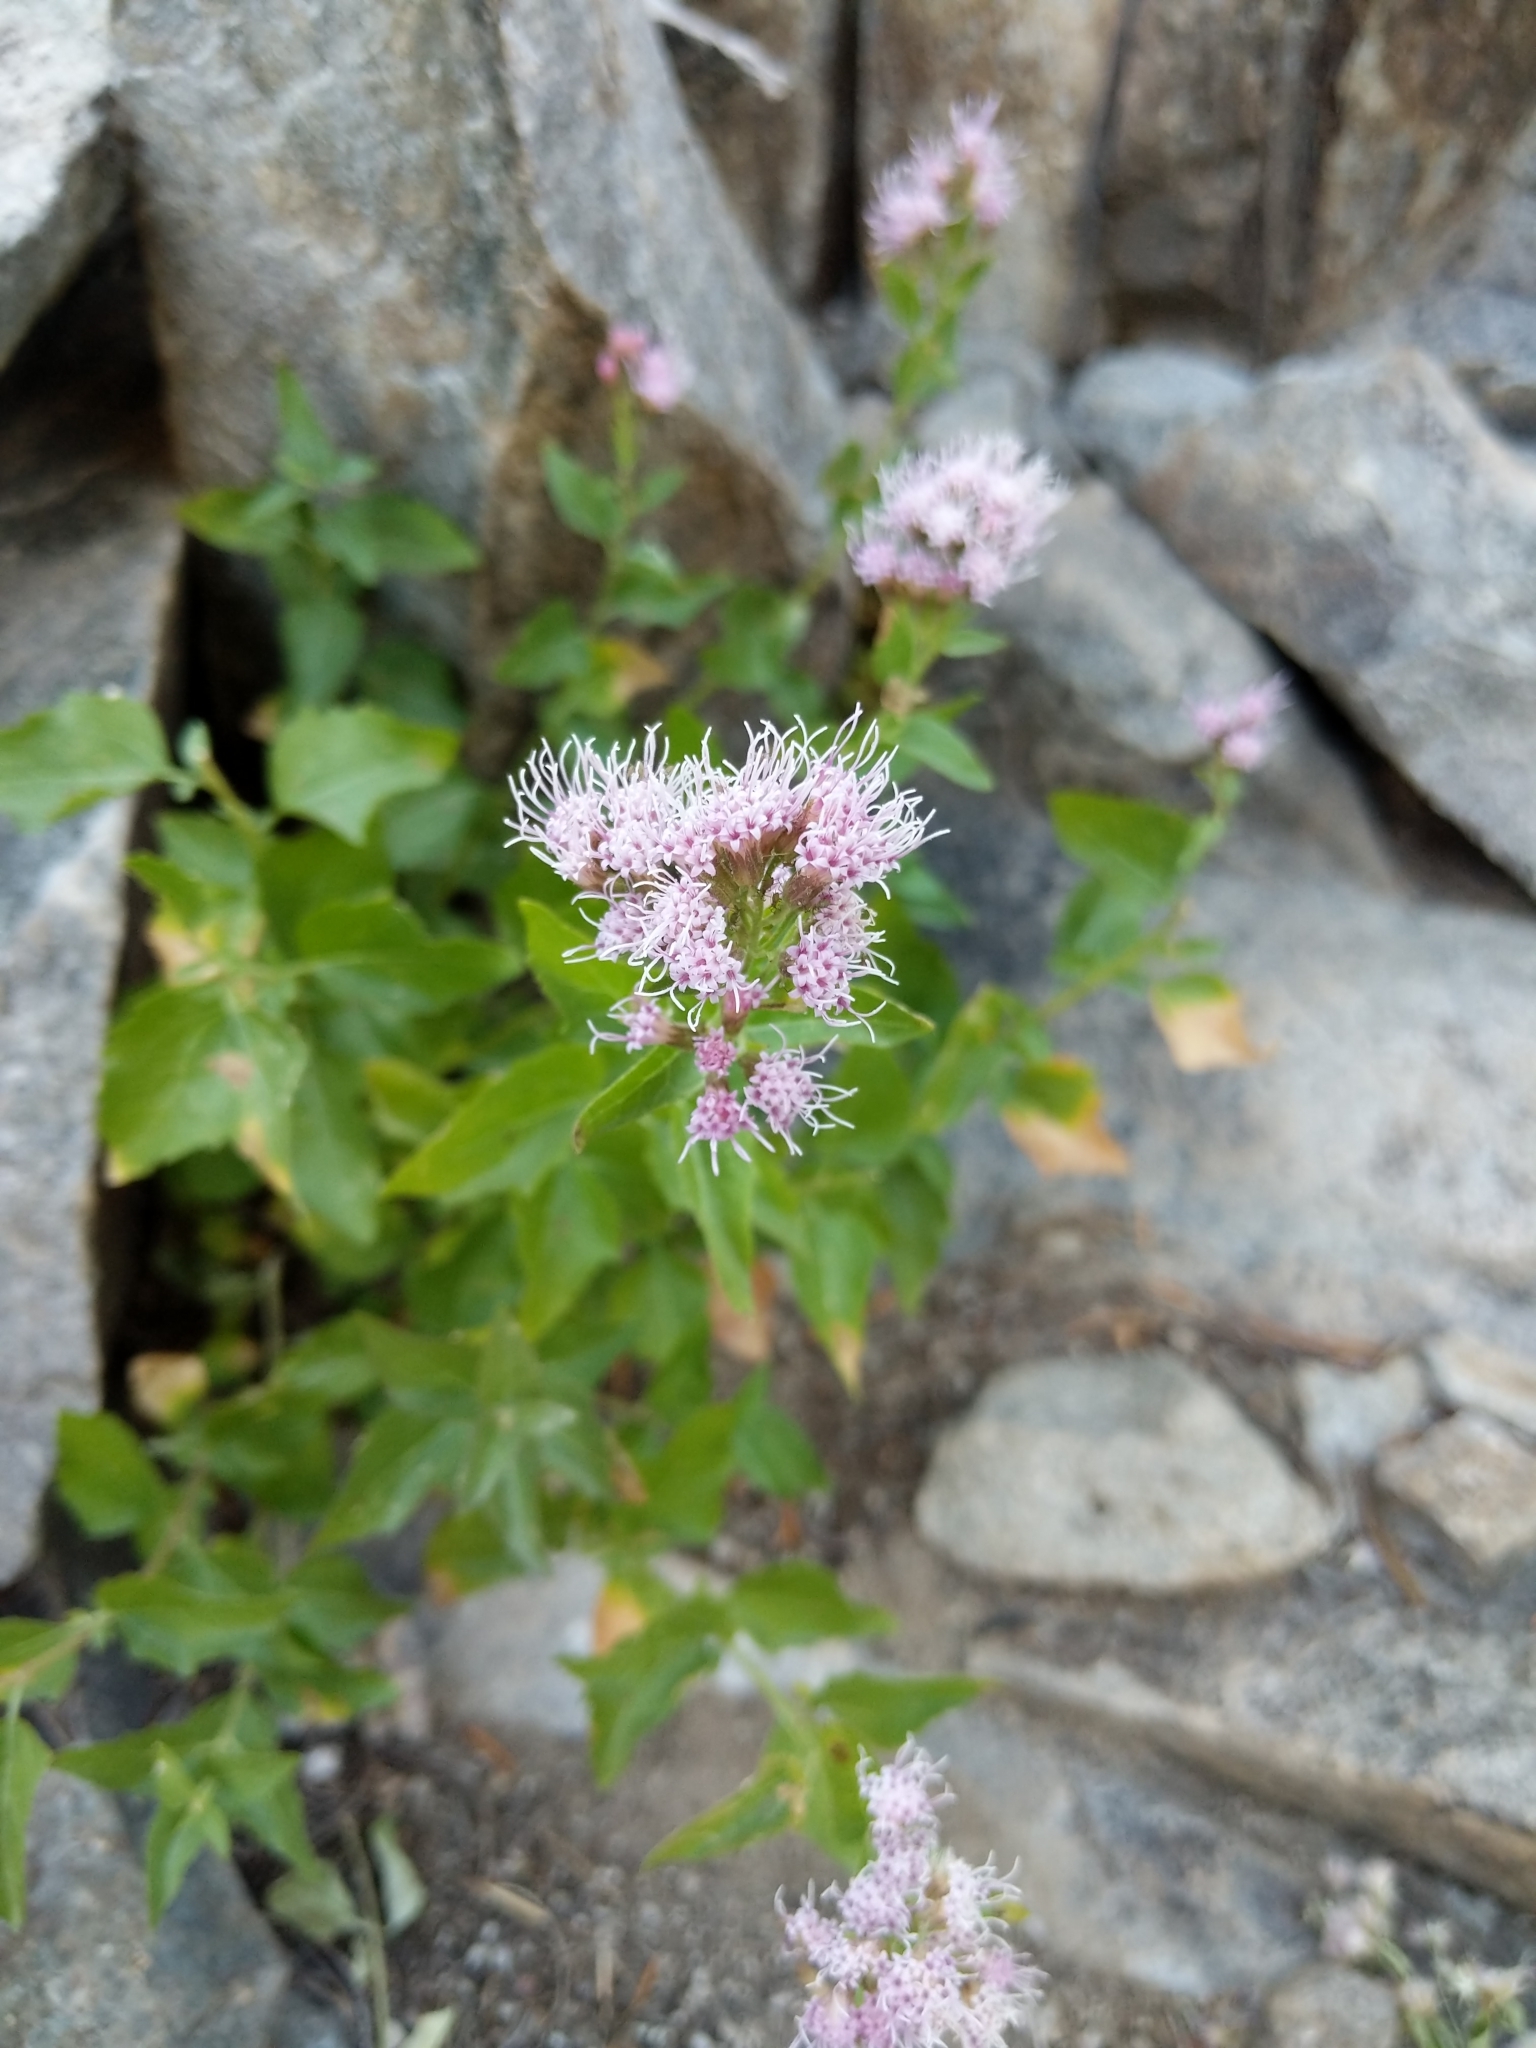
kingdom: Plantae
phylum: Tracheophyta
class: Magnoliopsida
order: Asterales
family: Asteraceae
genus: Ageratina
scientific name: Ageratina occidentalis
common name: Western snakeroot
